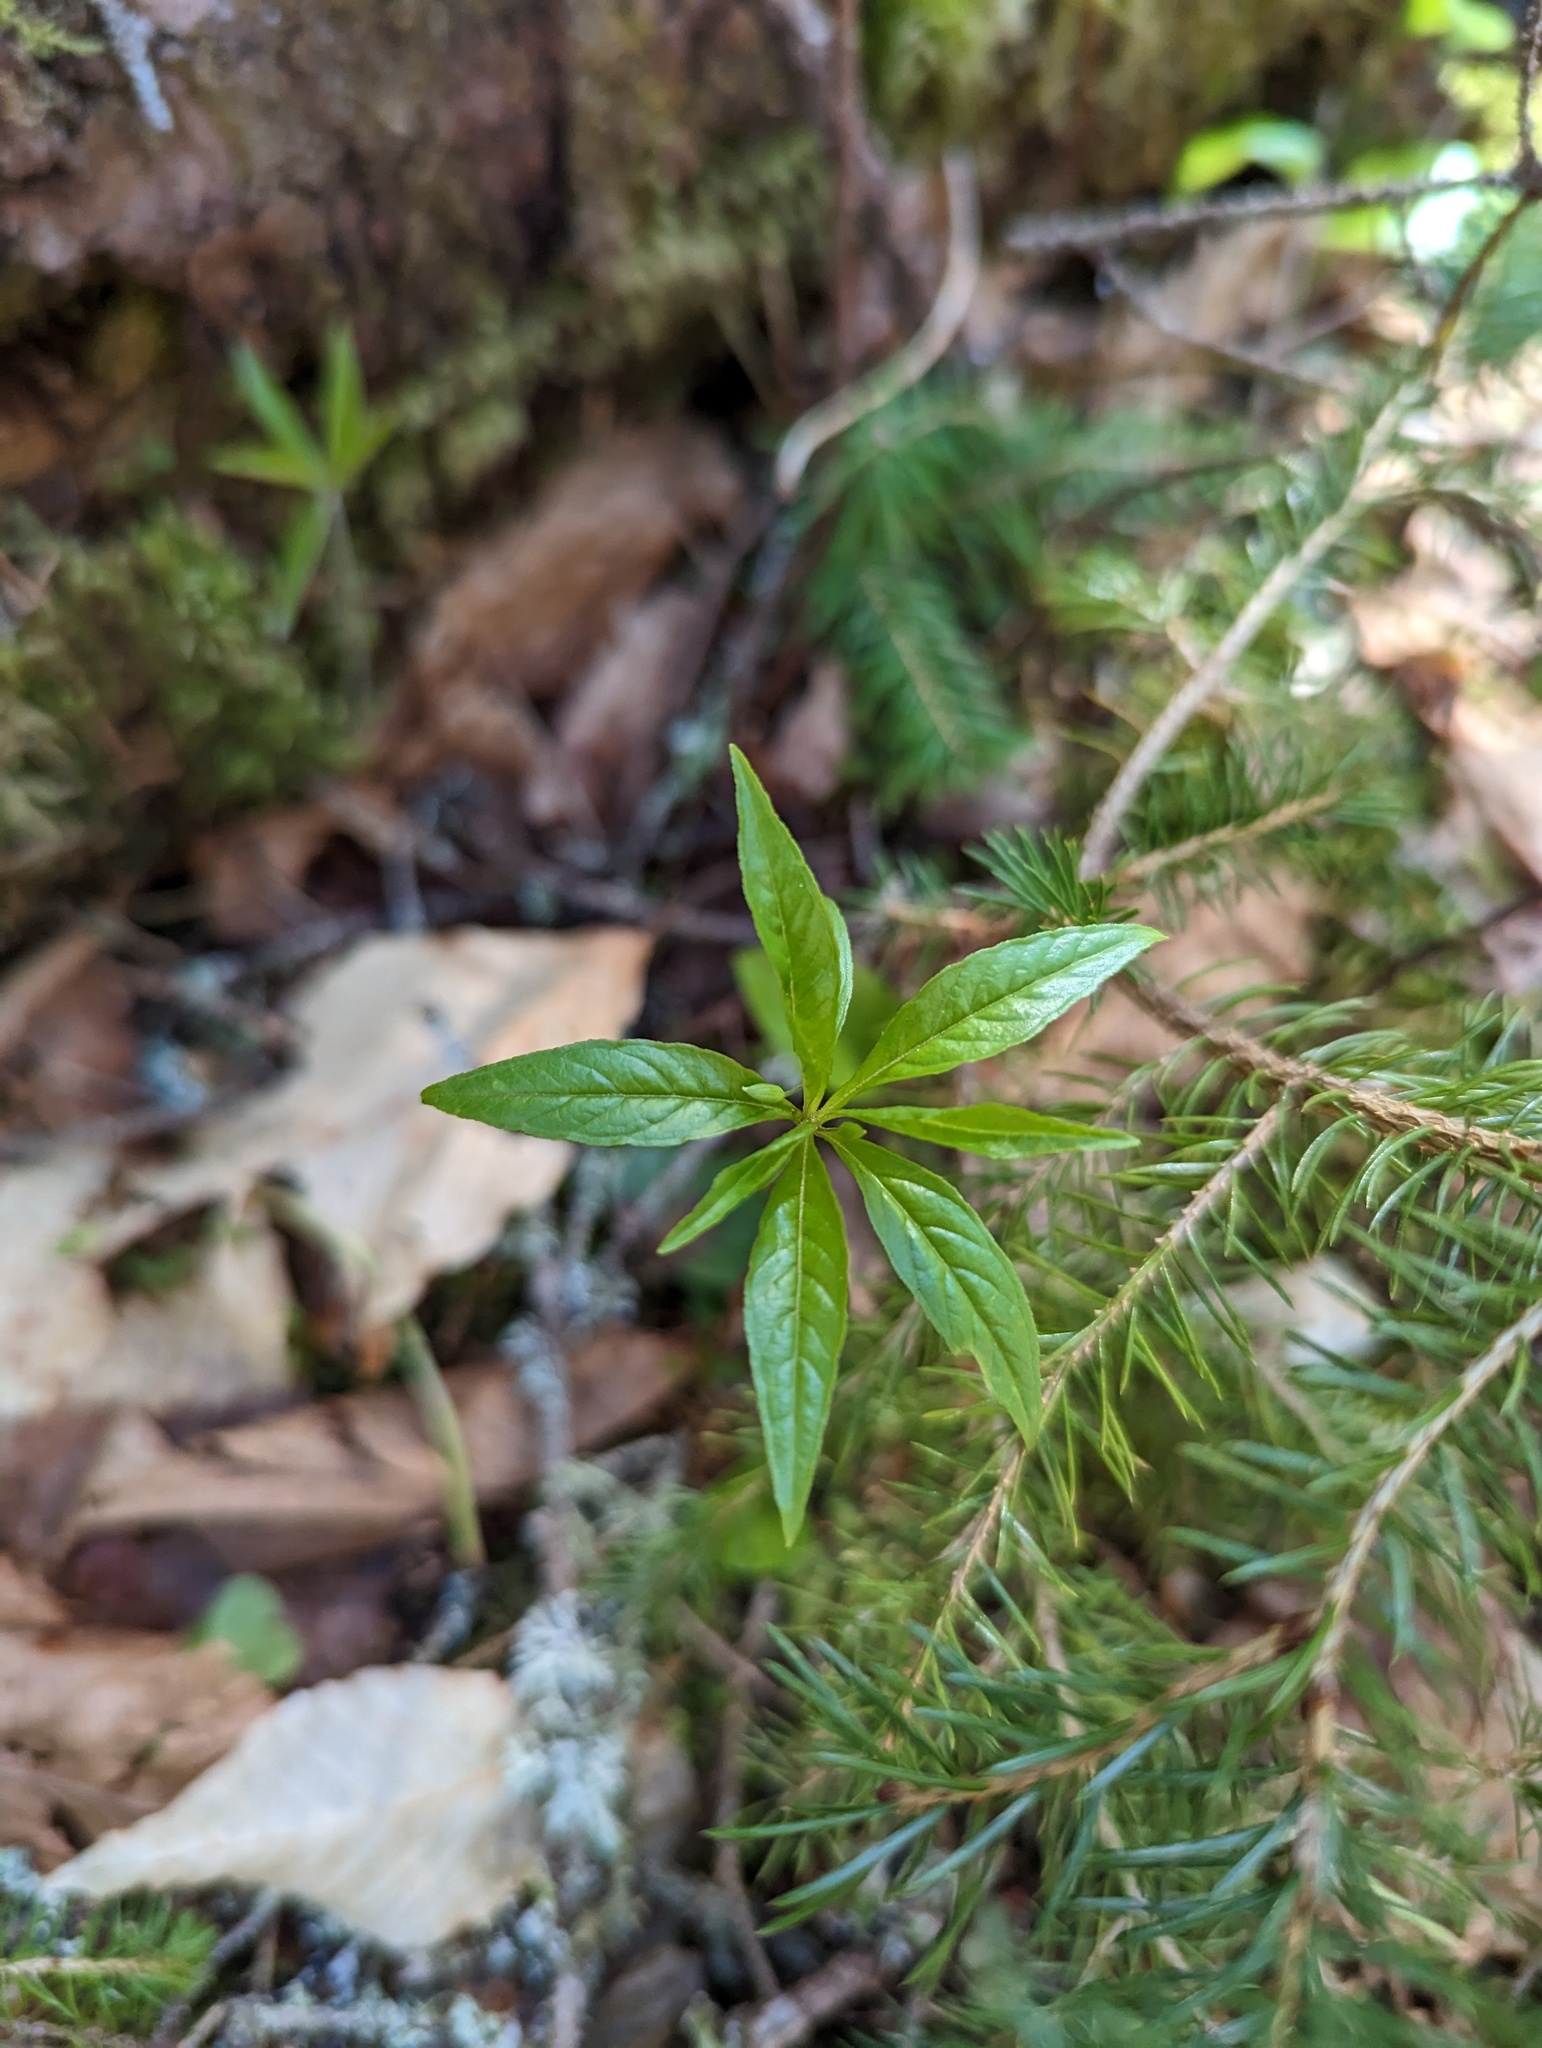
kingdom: Plantae
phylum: Tracheophyta
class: Magnoliopsida
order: Ericales
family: Primulaceae
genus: Lysimachia
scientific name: Lysimachia borealis
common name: American starflower
